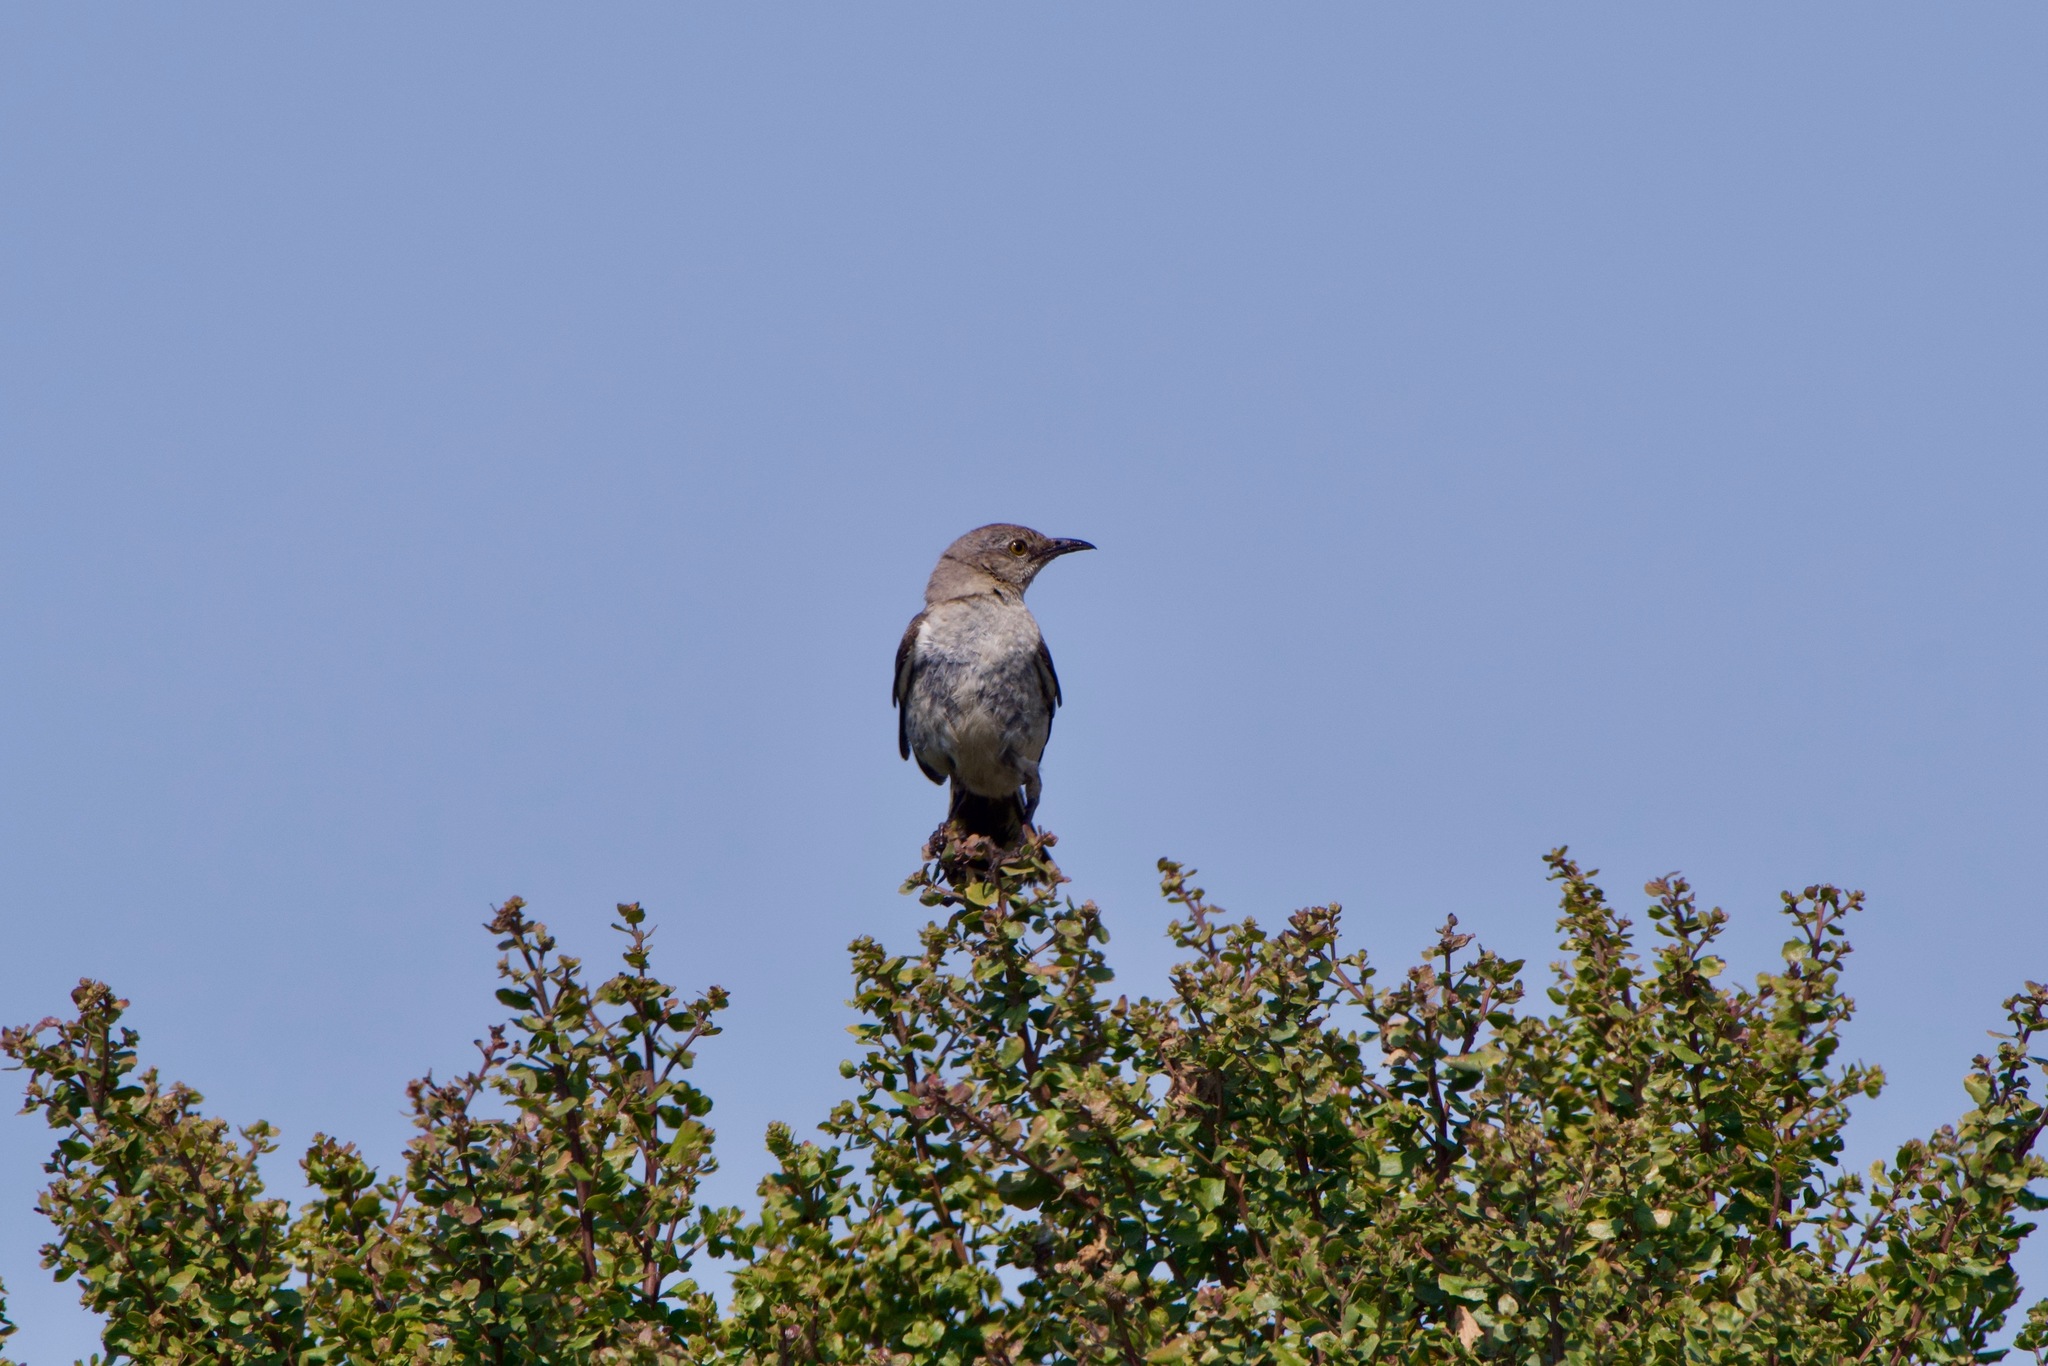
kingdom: Animalia
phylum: Chordata
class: Aves
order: Passeriformes
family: Mimidae
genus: Mimus
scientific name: Mimus polyglottos
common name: Northern mockingbird
